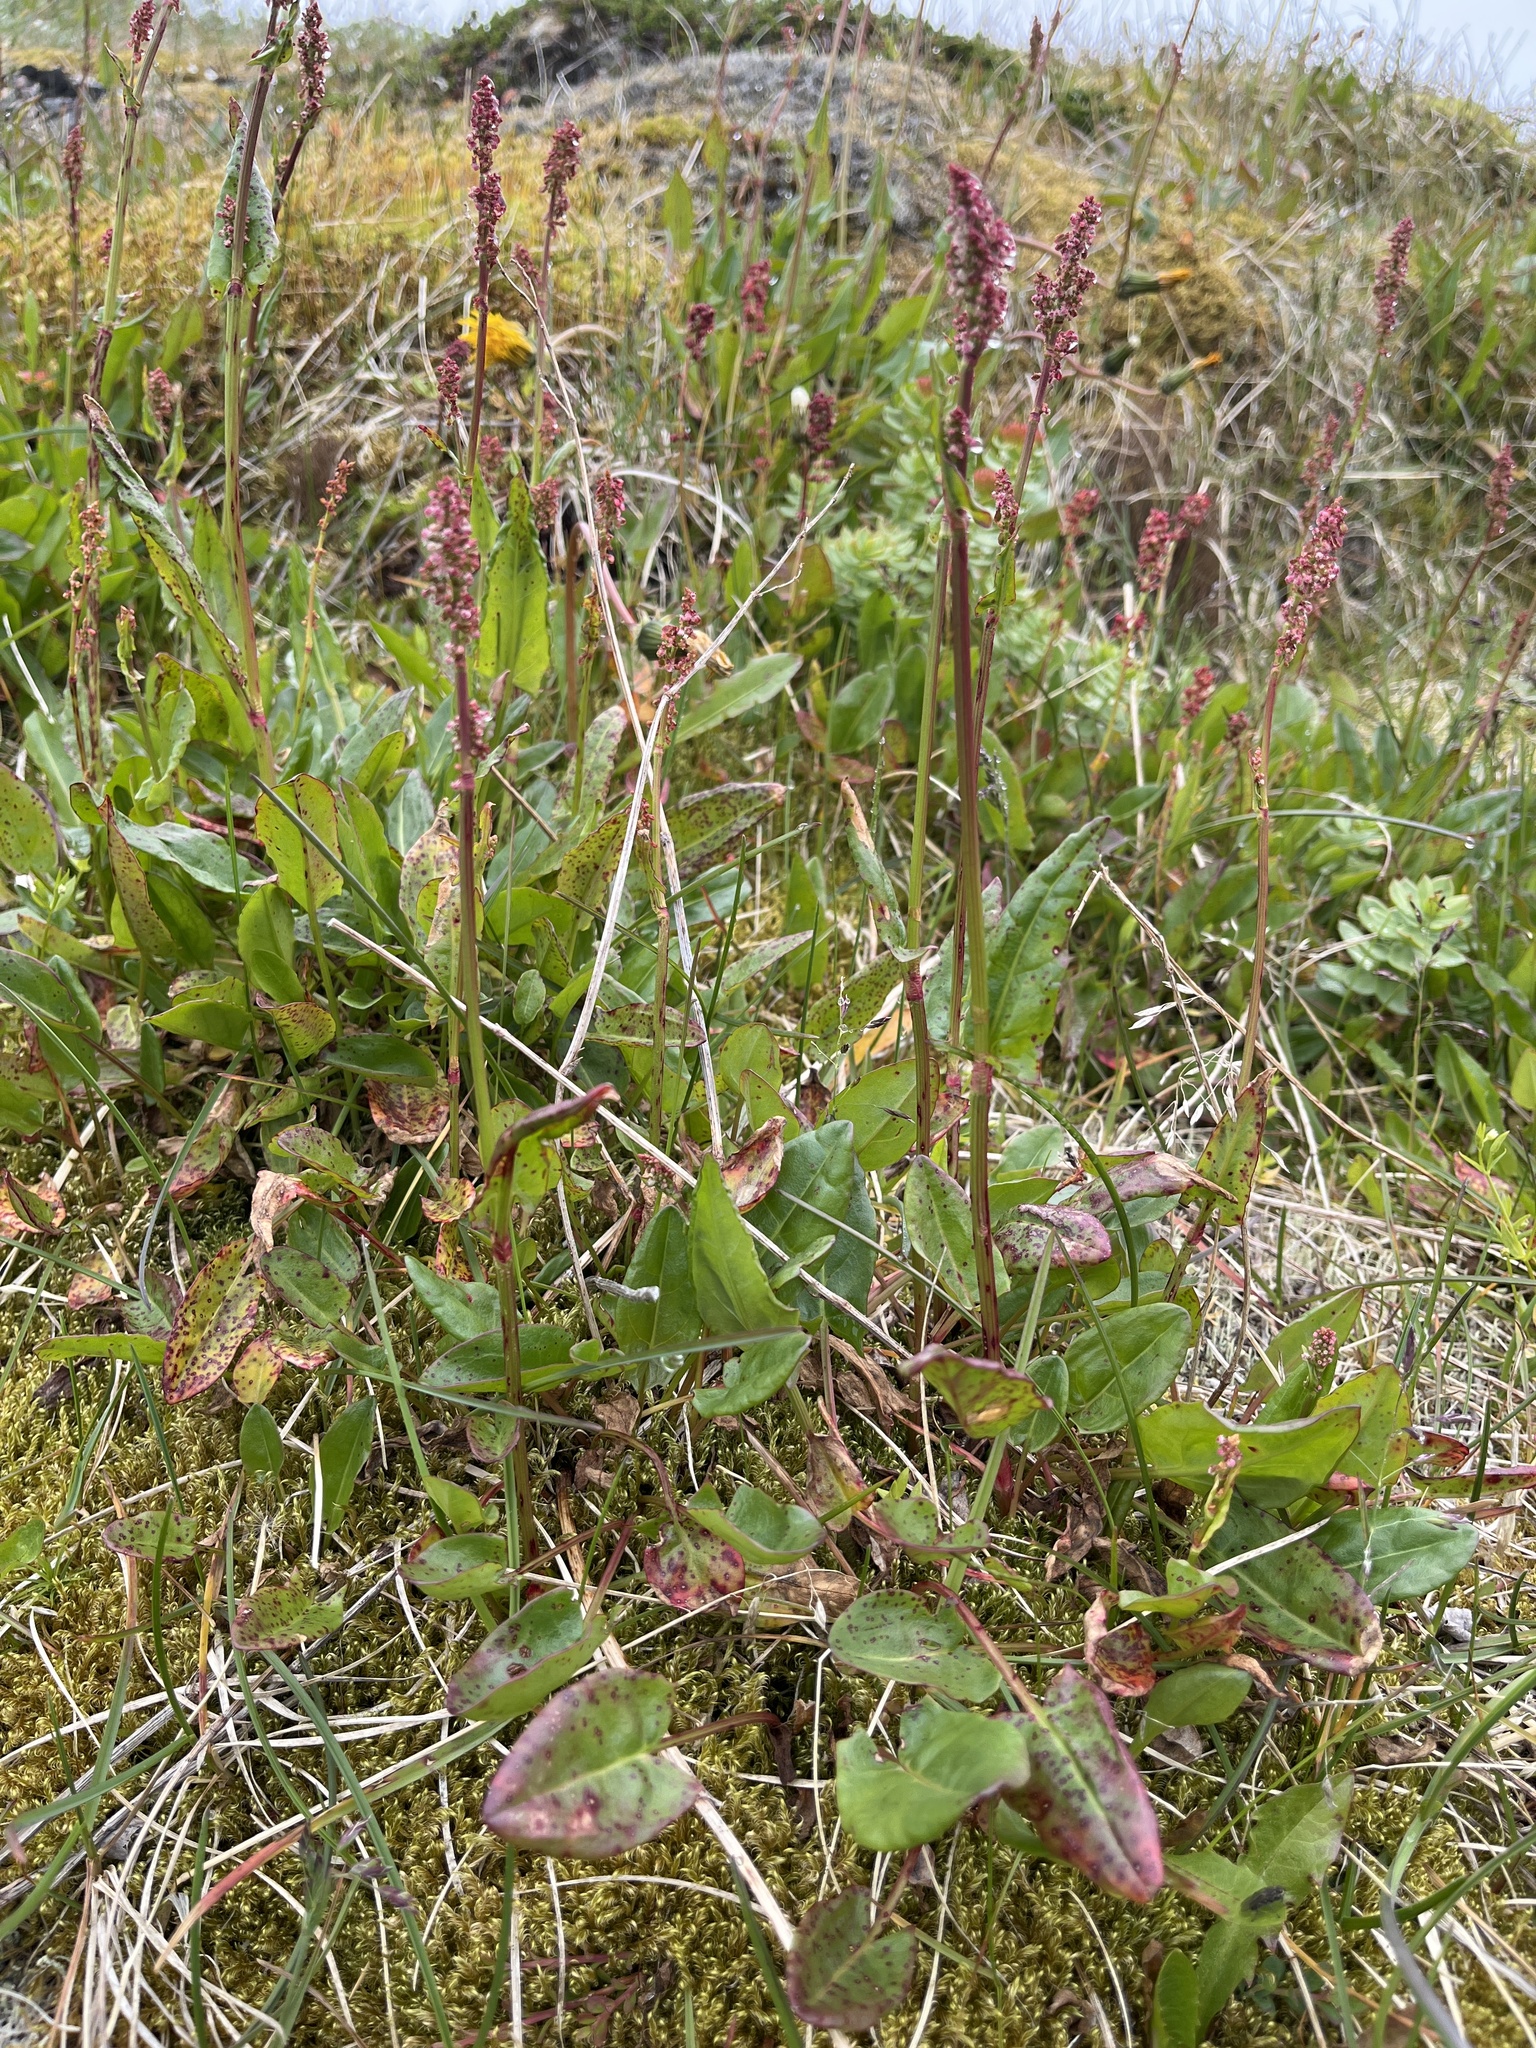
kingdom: Plantae
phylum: Tracheophyta
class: Magnoliopsida
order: Caryophyllales
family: Polygonaceae
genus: Rumex
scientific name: Rumex acetosella
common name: Common sheep sorrel
